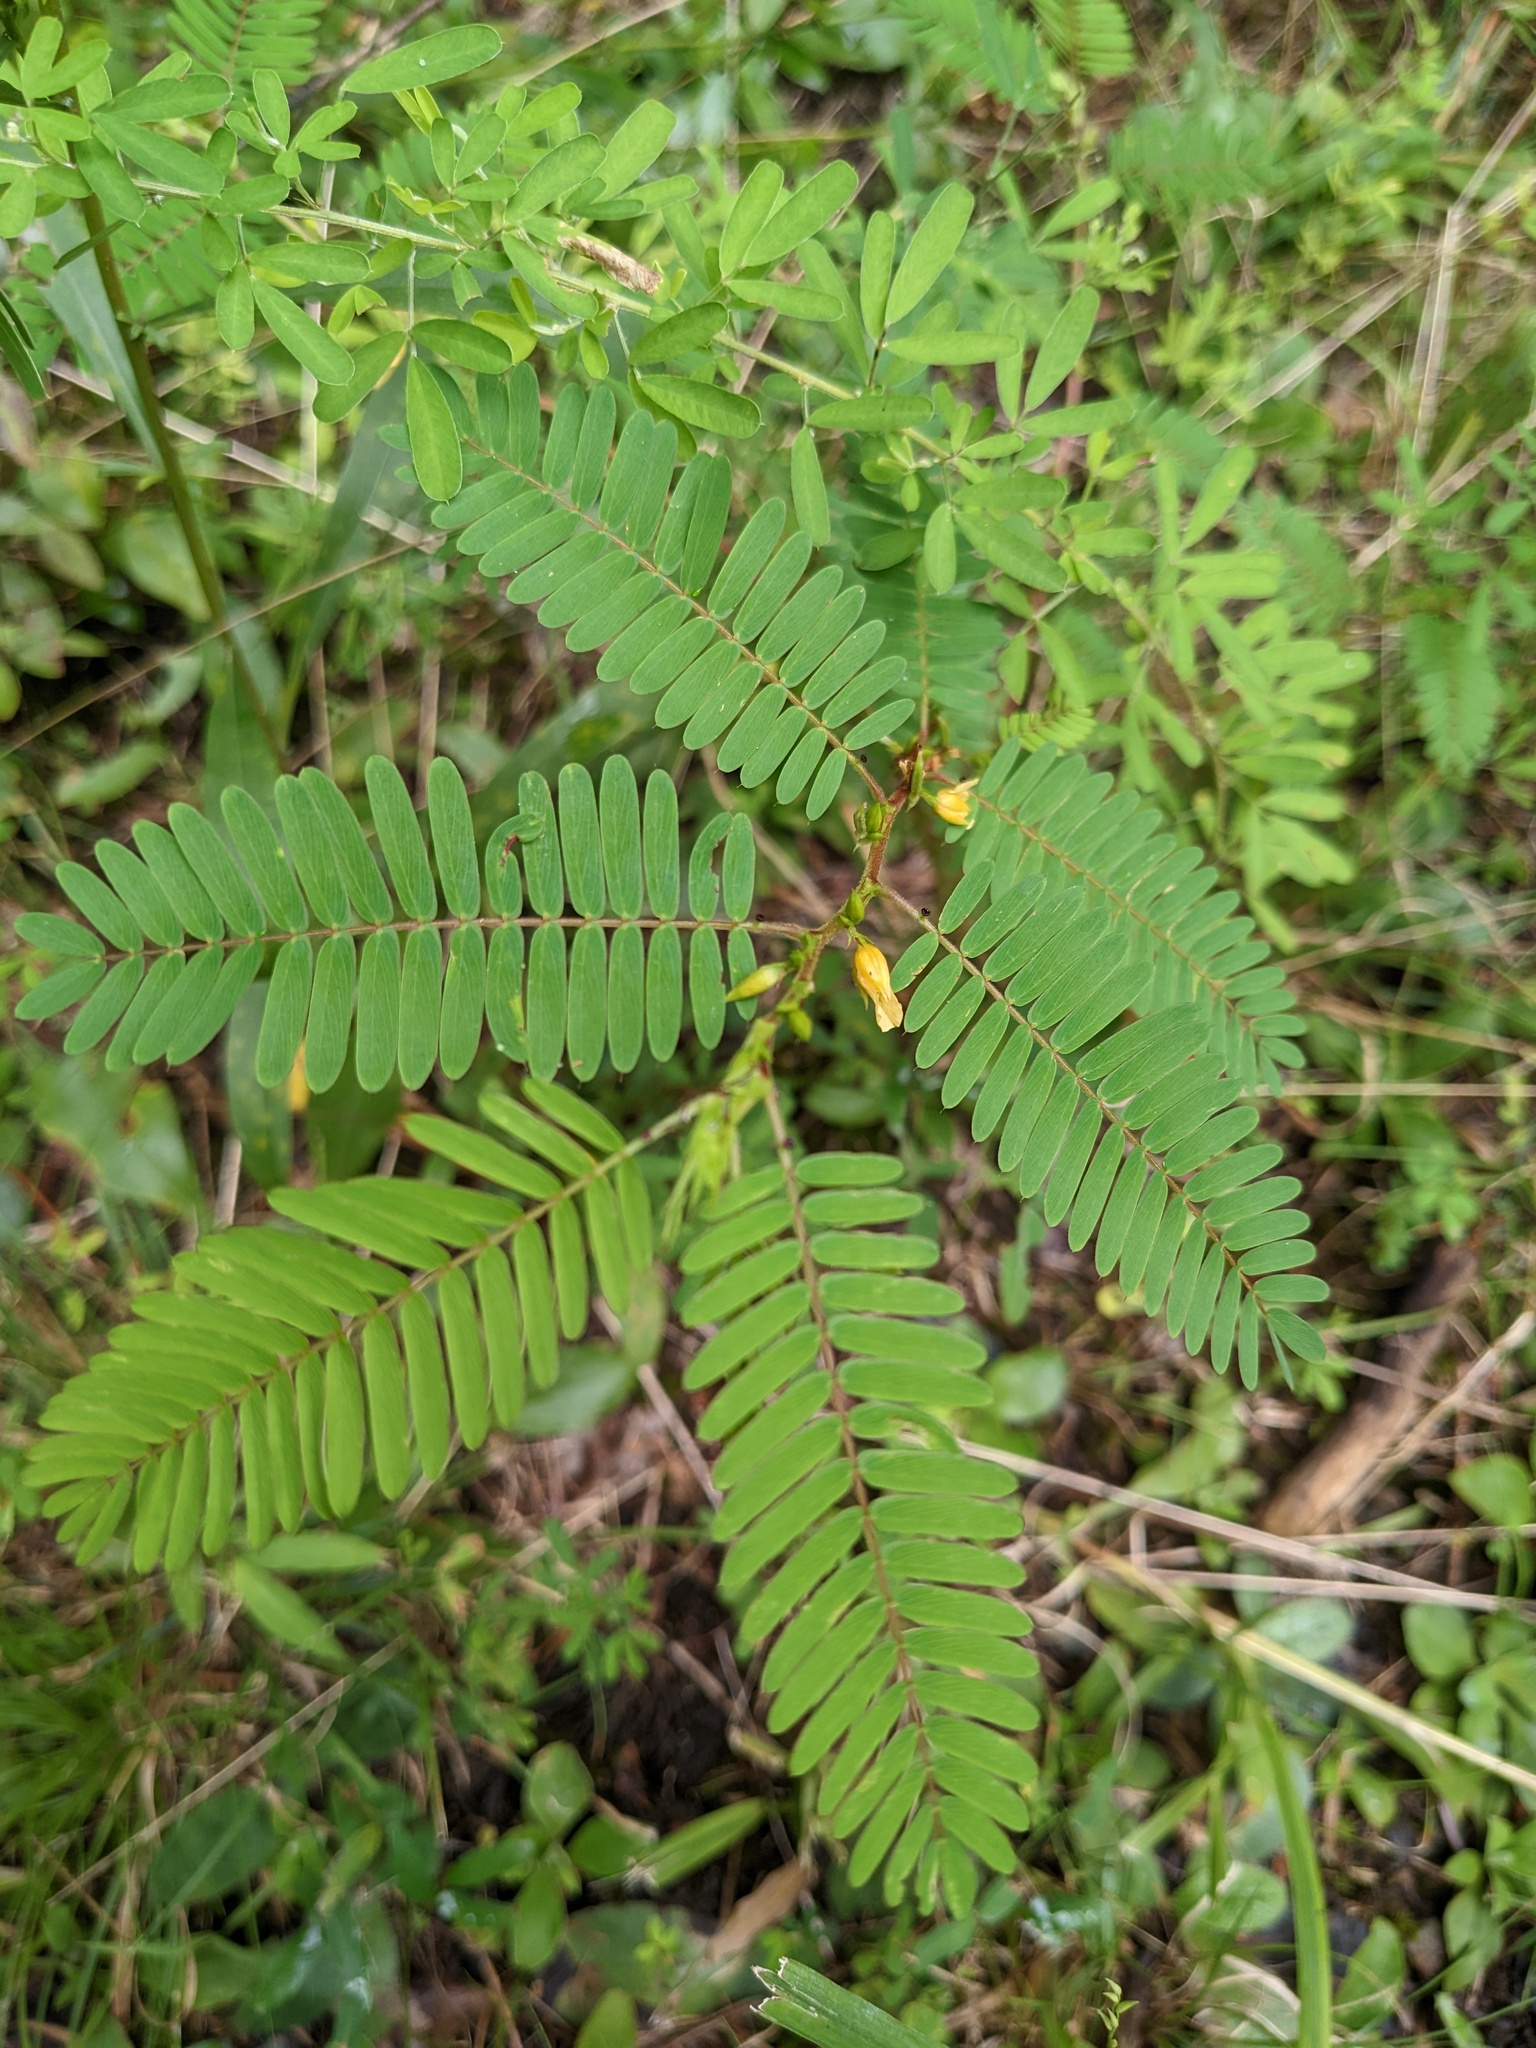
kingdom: Plantae
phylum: Tracheophyta
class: Magnoliopsida
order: Fabales
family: Fabaceae
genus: Chamaecrista
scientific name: Chamaecrista nictitans
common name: Sensitive cassia
